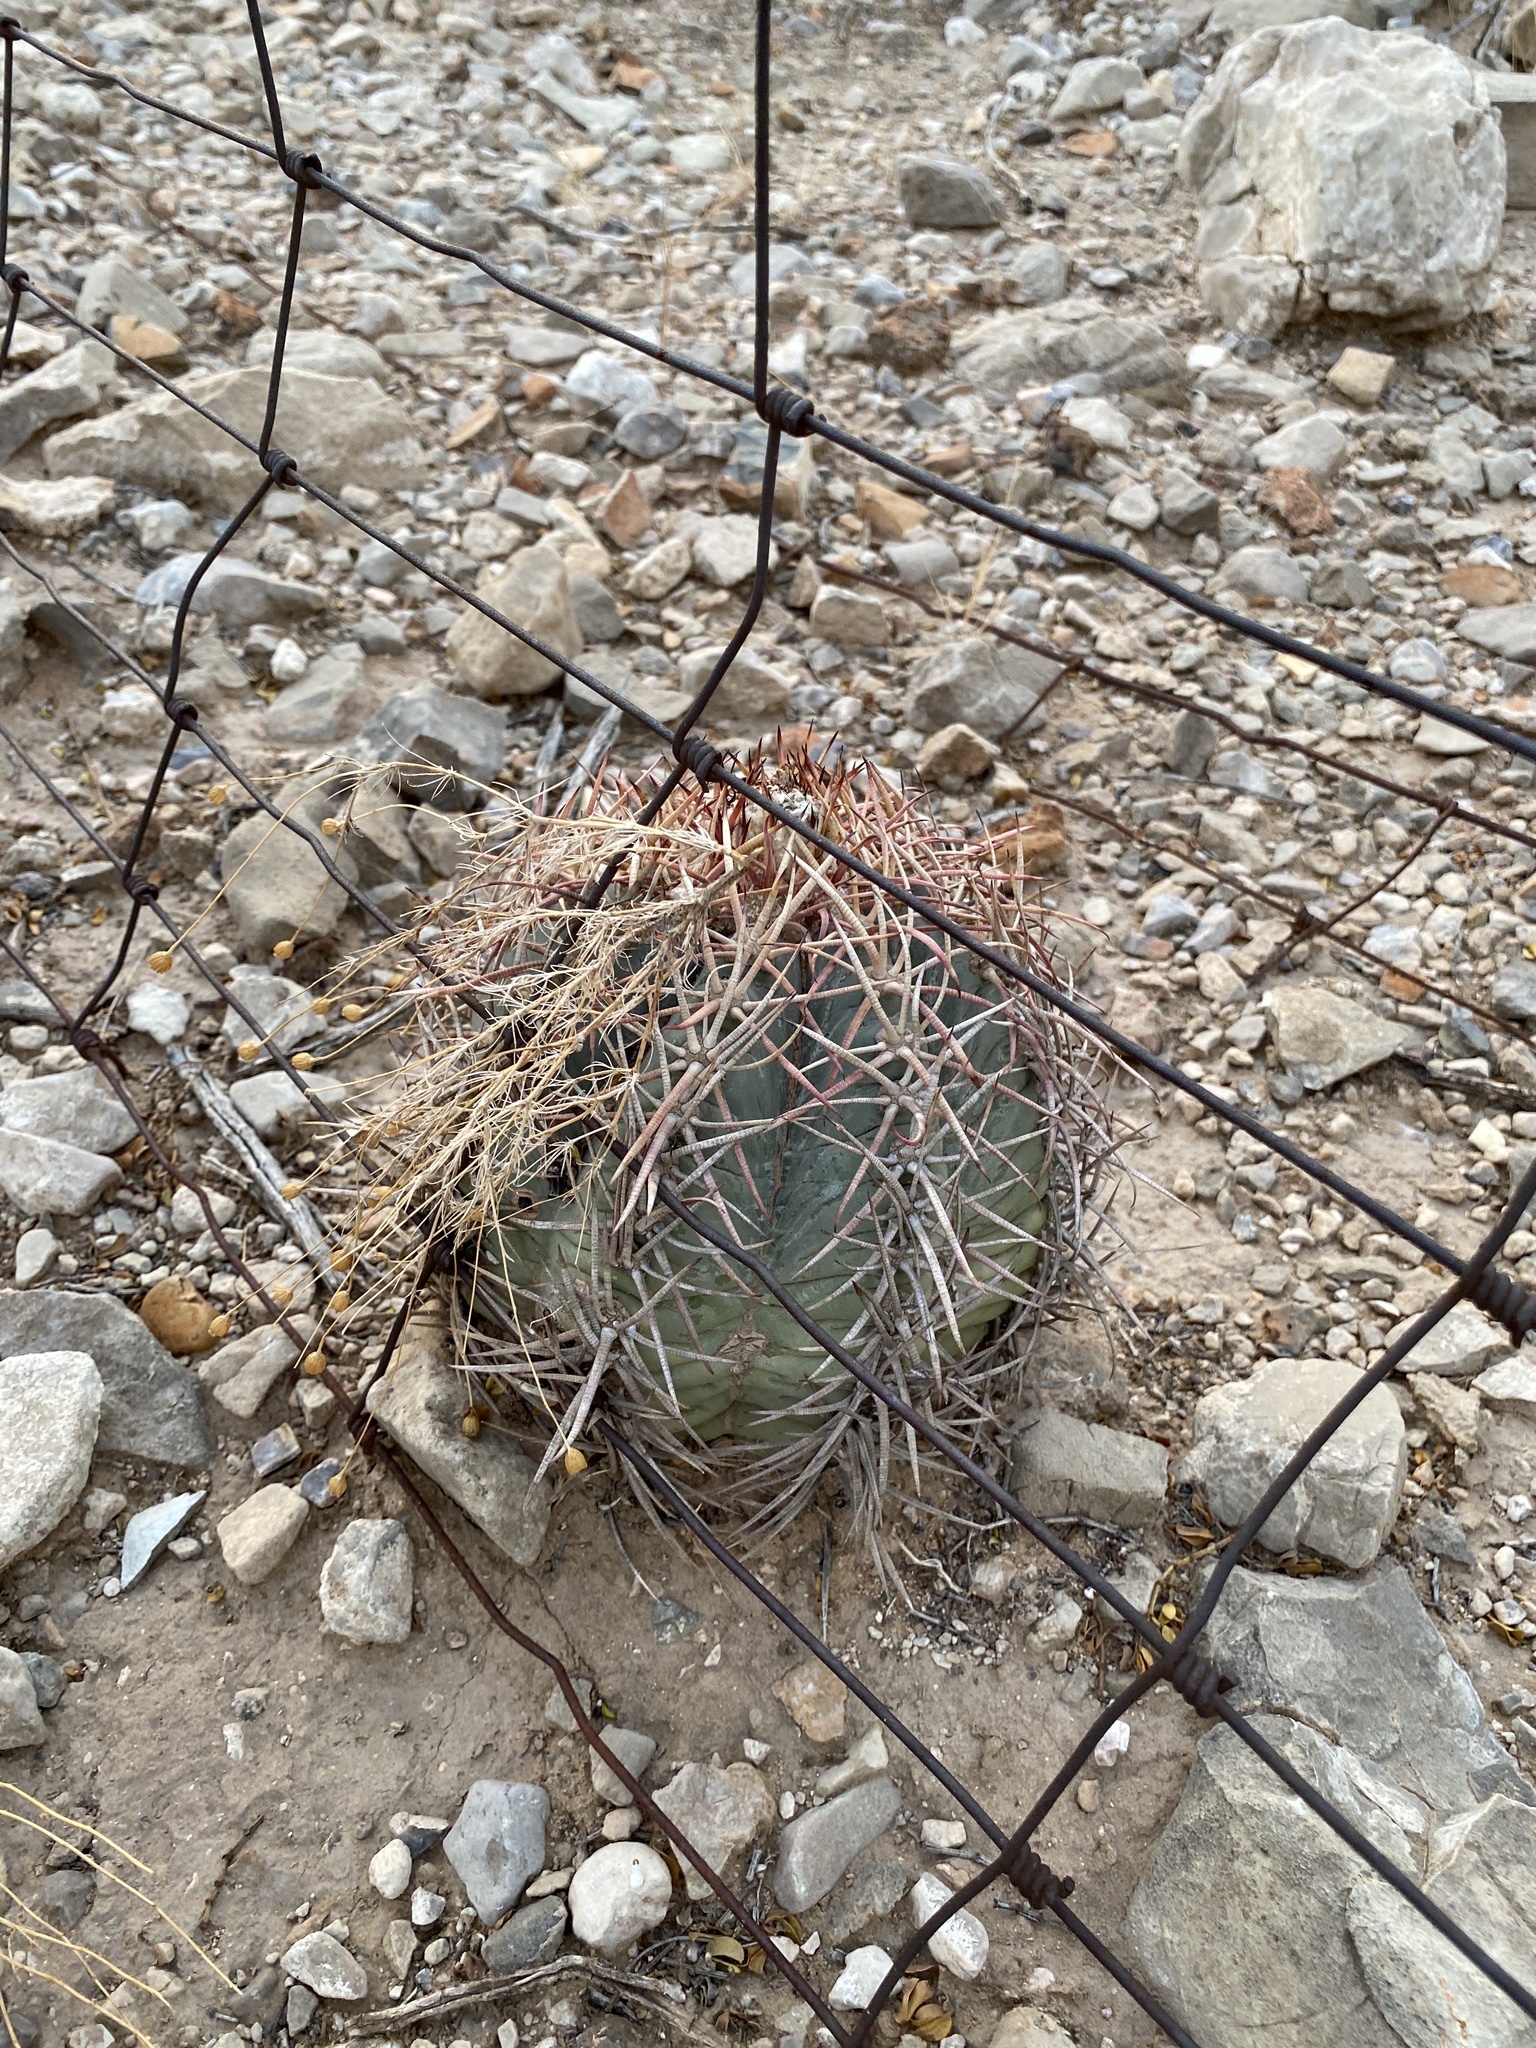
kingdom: Plantae
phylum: Tracheophyta
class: Magnoliopsida
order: Caryophyllales
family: Cactaceae
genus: Echinocactus
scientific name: Echinocactus horizonthalonius
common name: Devilshead
